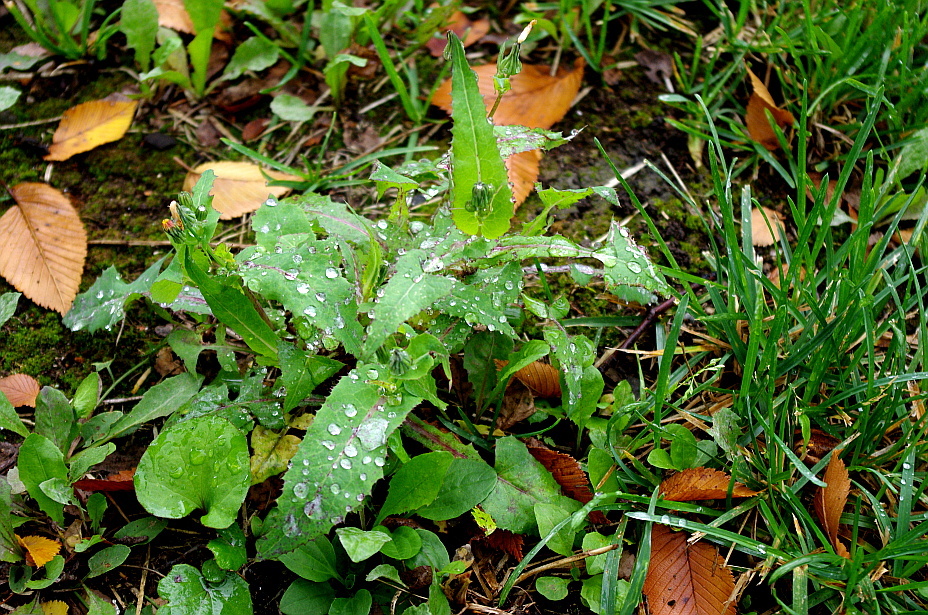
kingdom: Plantae
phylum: Tracheophyta
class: Magnoliopsida
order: Asterales
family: Asteraceae
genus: Sonchus
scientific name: Sonchus oleraceus
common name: Common sowthistle
